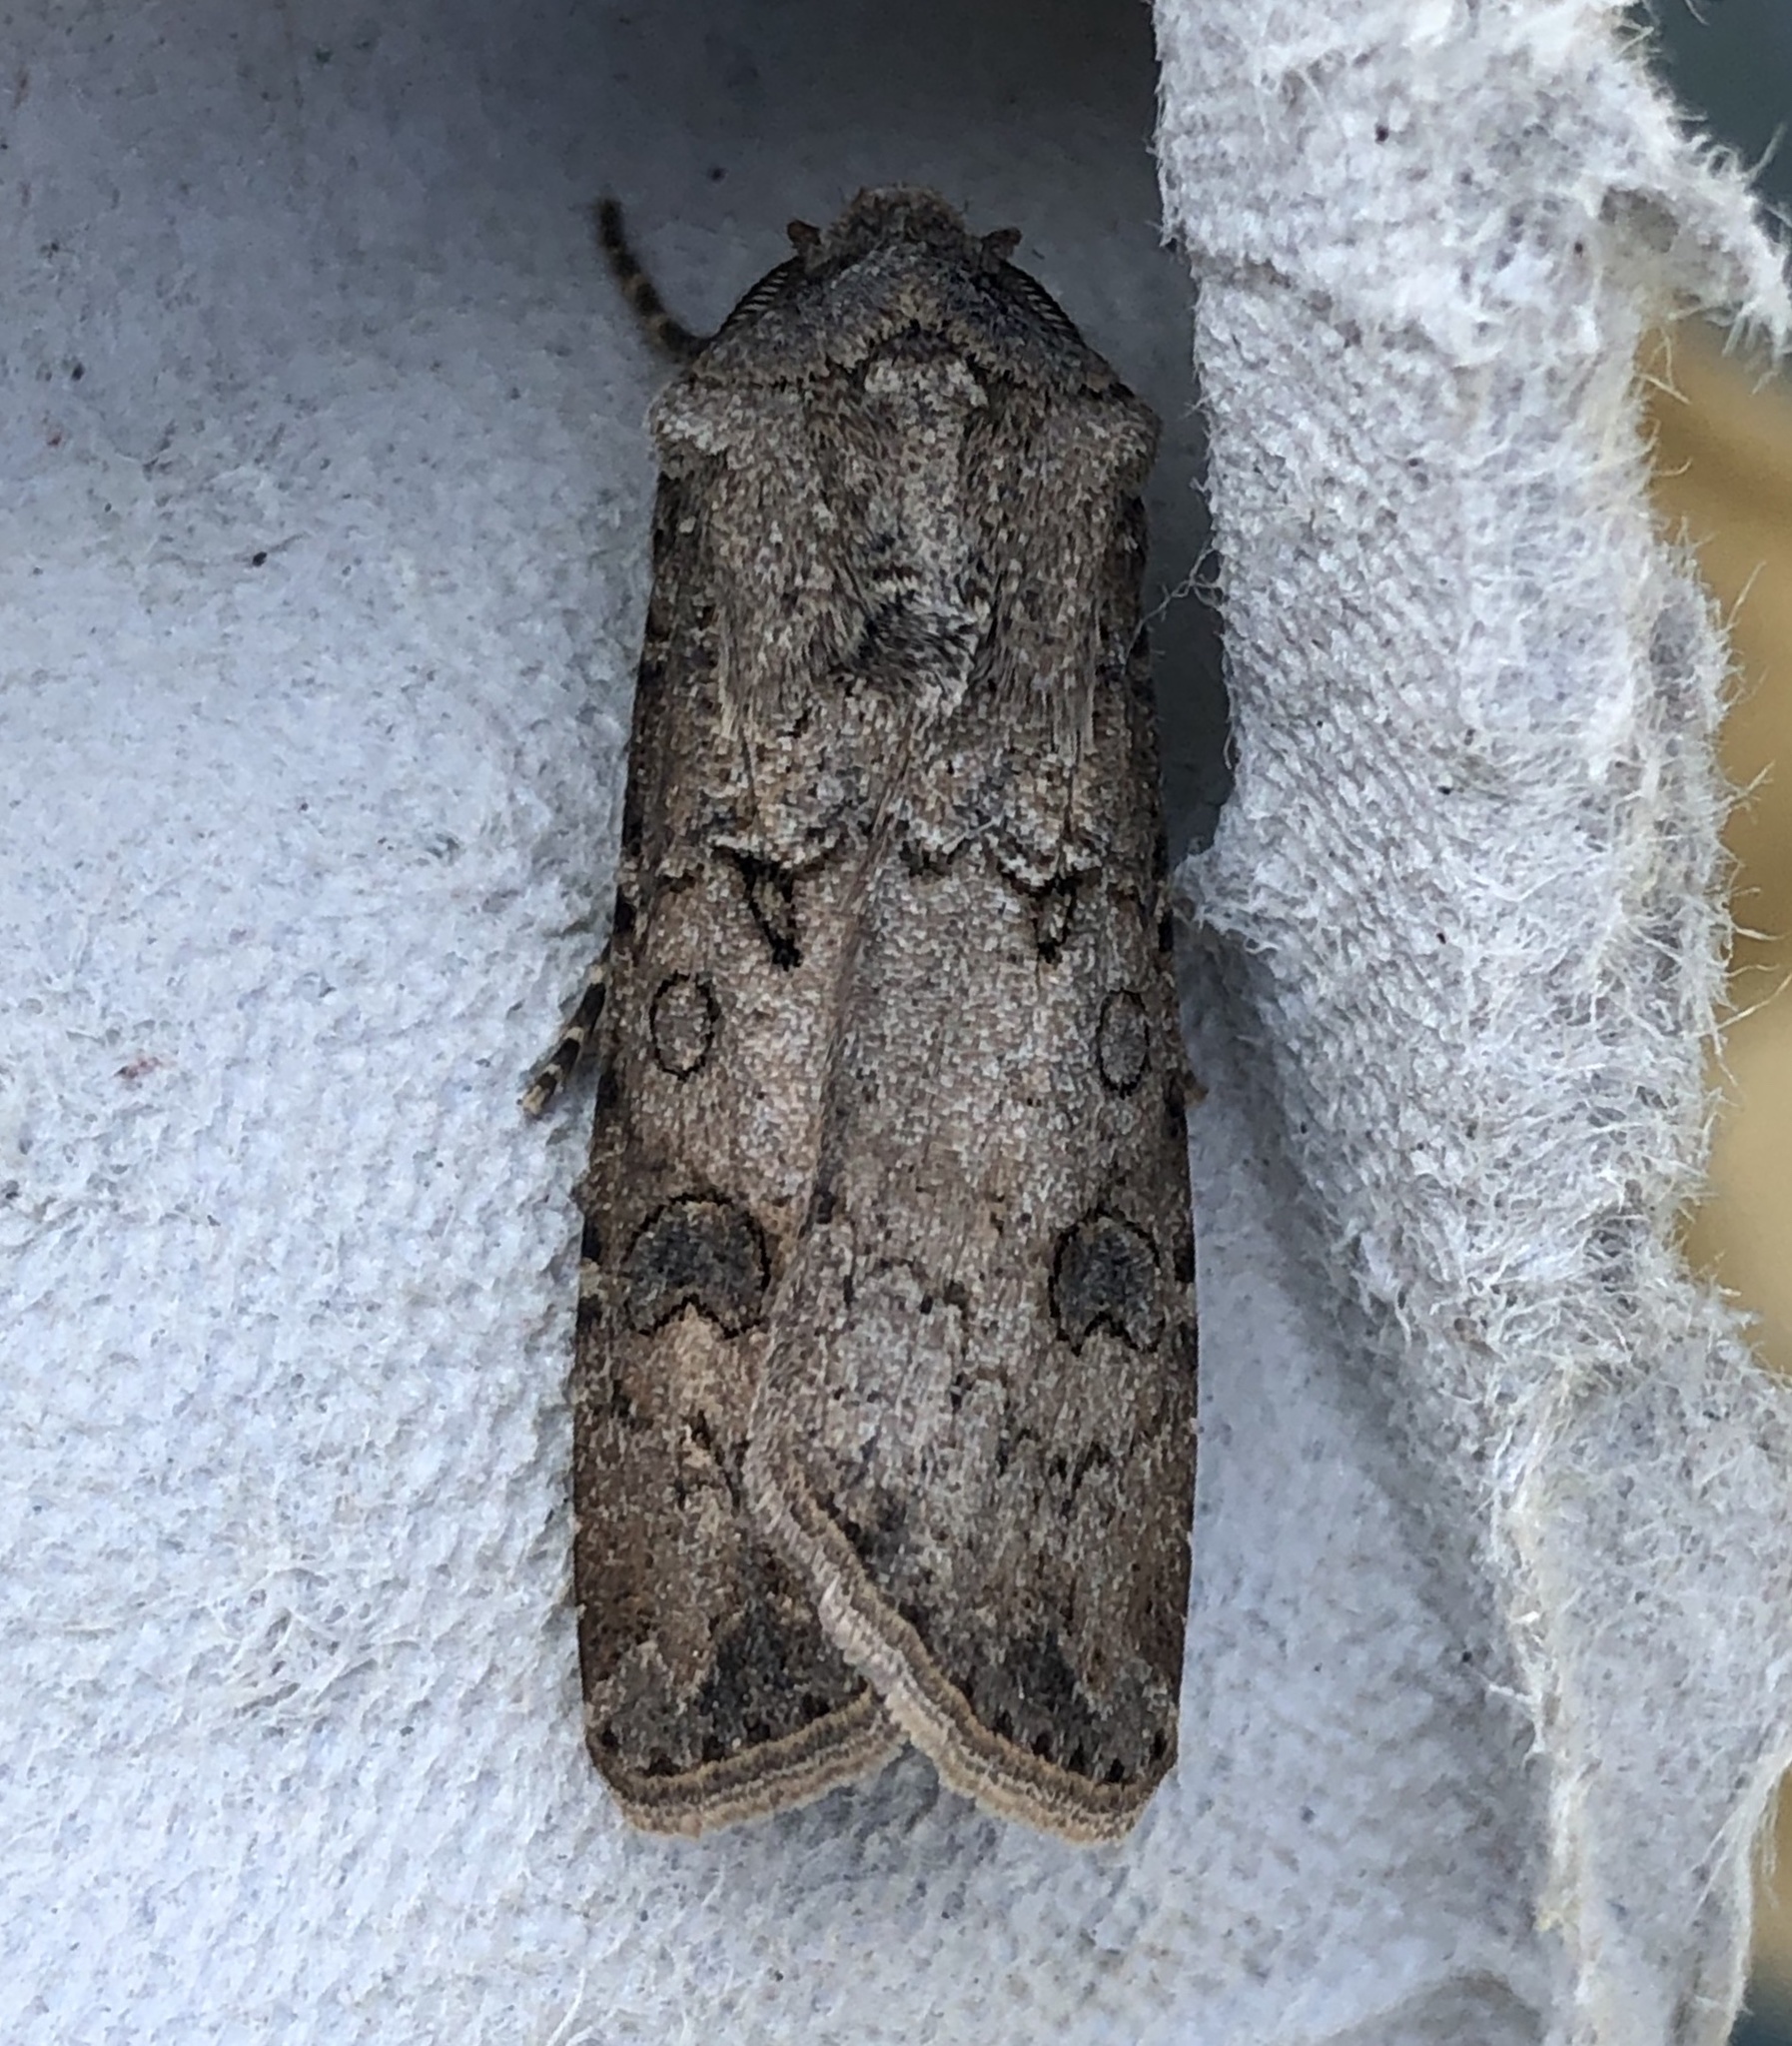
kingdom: Animalia
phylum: Arthropoda
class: Insecta
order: Lepidoptera
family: Noctuidae
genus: Agrotis
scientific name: Agrotis segetum
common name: Turnip moth
